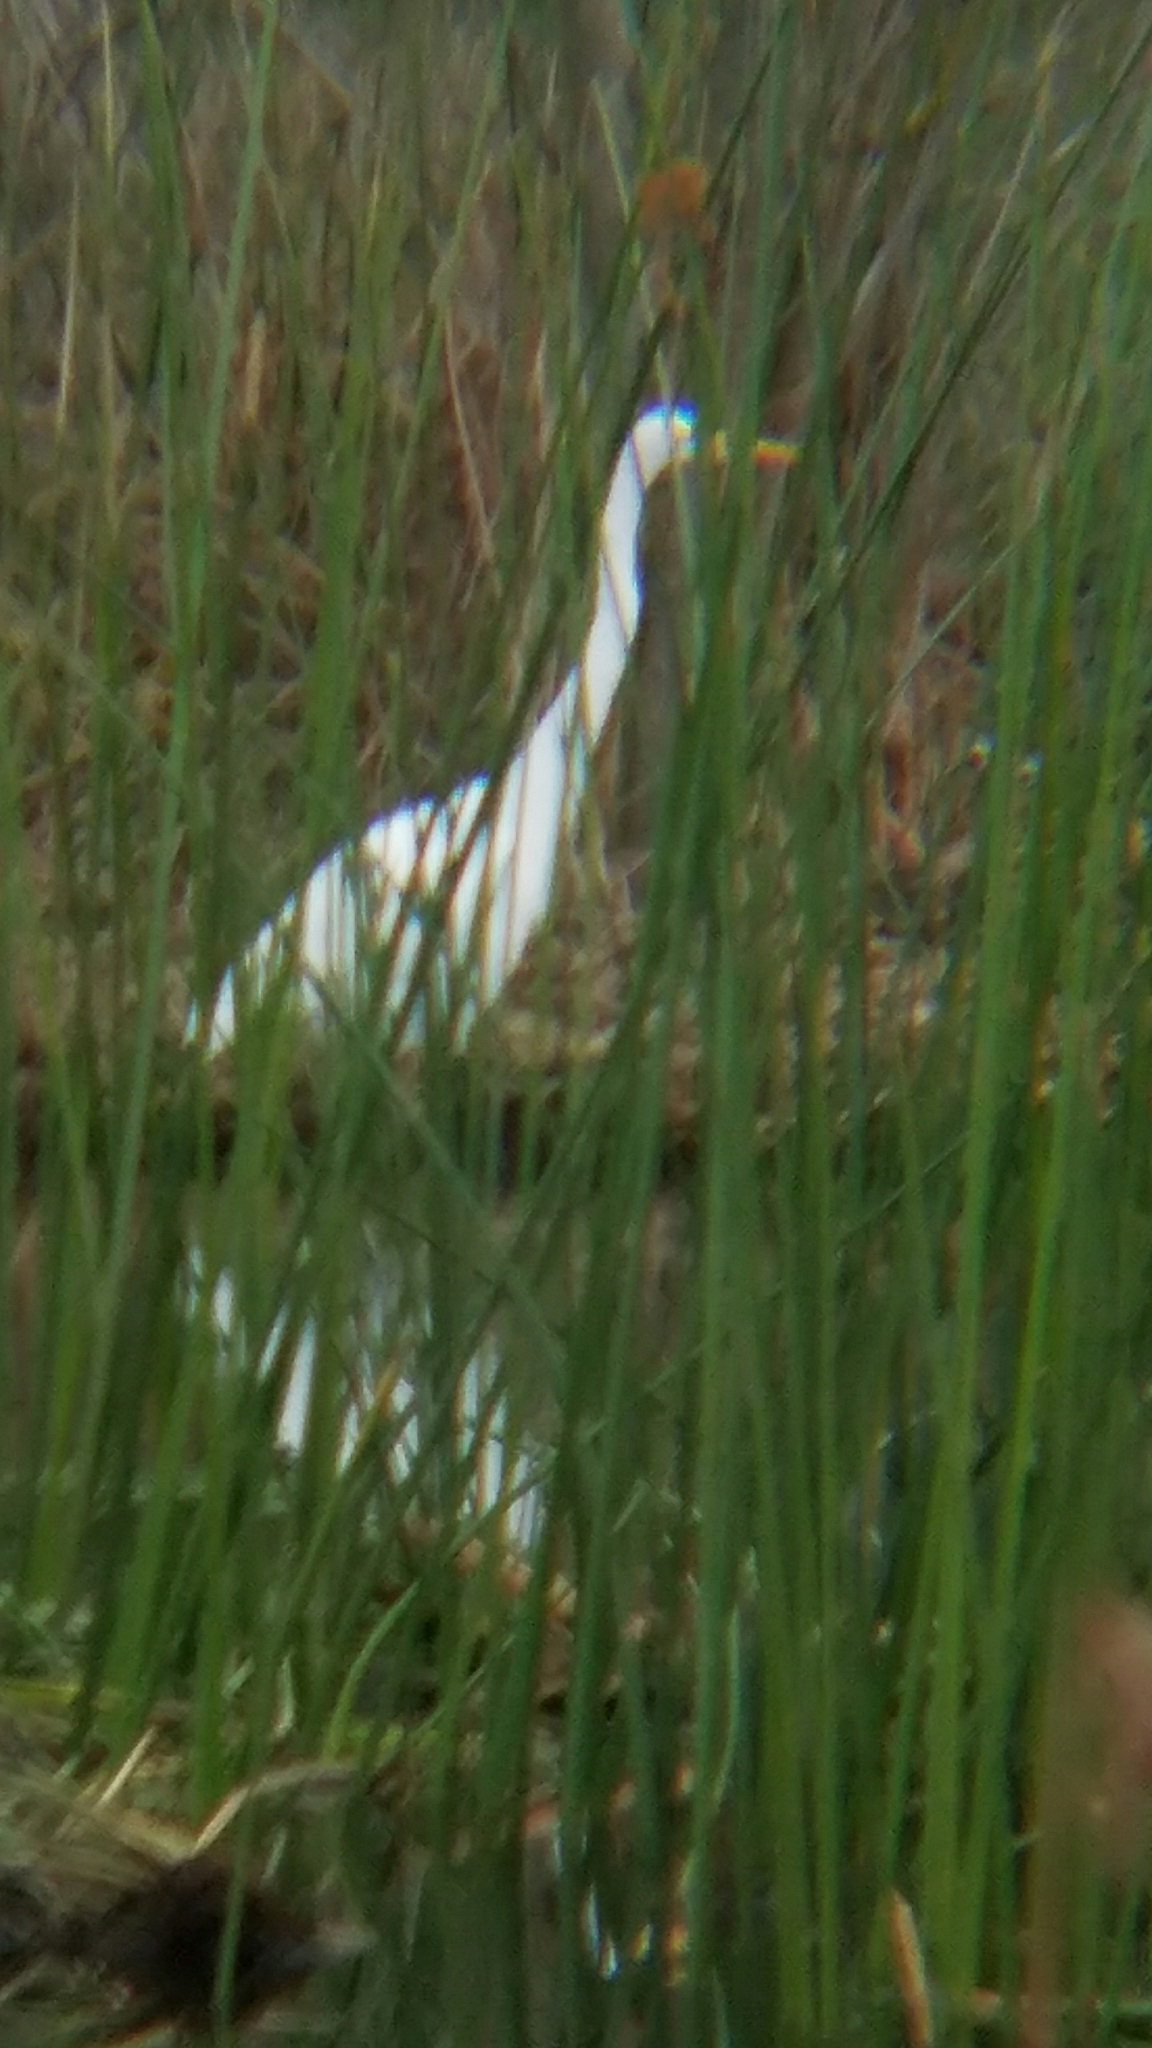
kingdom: Animalia
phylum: Chordata
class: Aves
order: Pelecaniformes
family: Ardeidae
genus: Ardea
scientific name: Ardea alba
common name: Great egret
